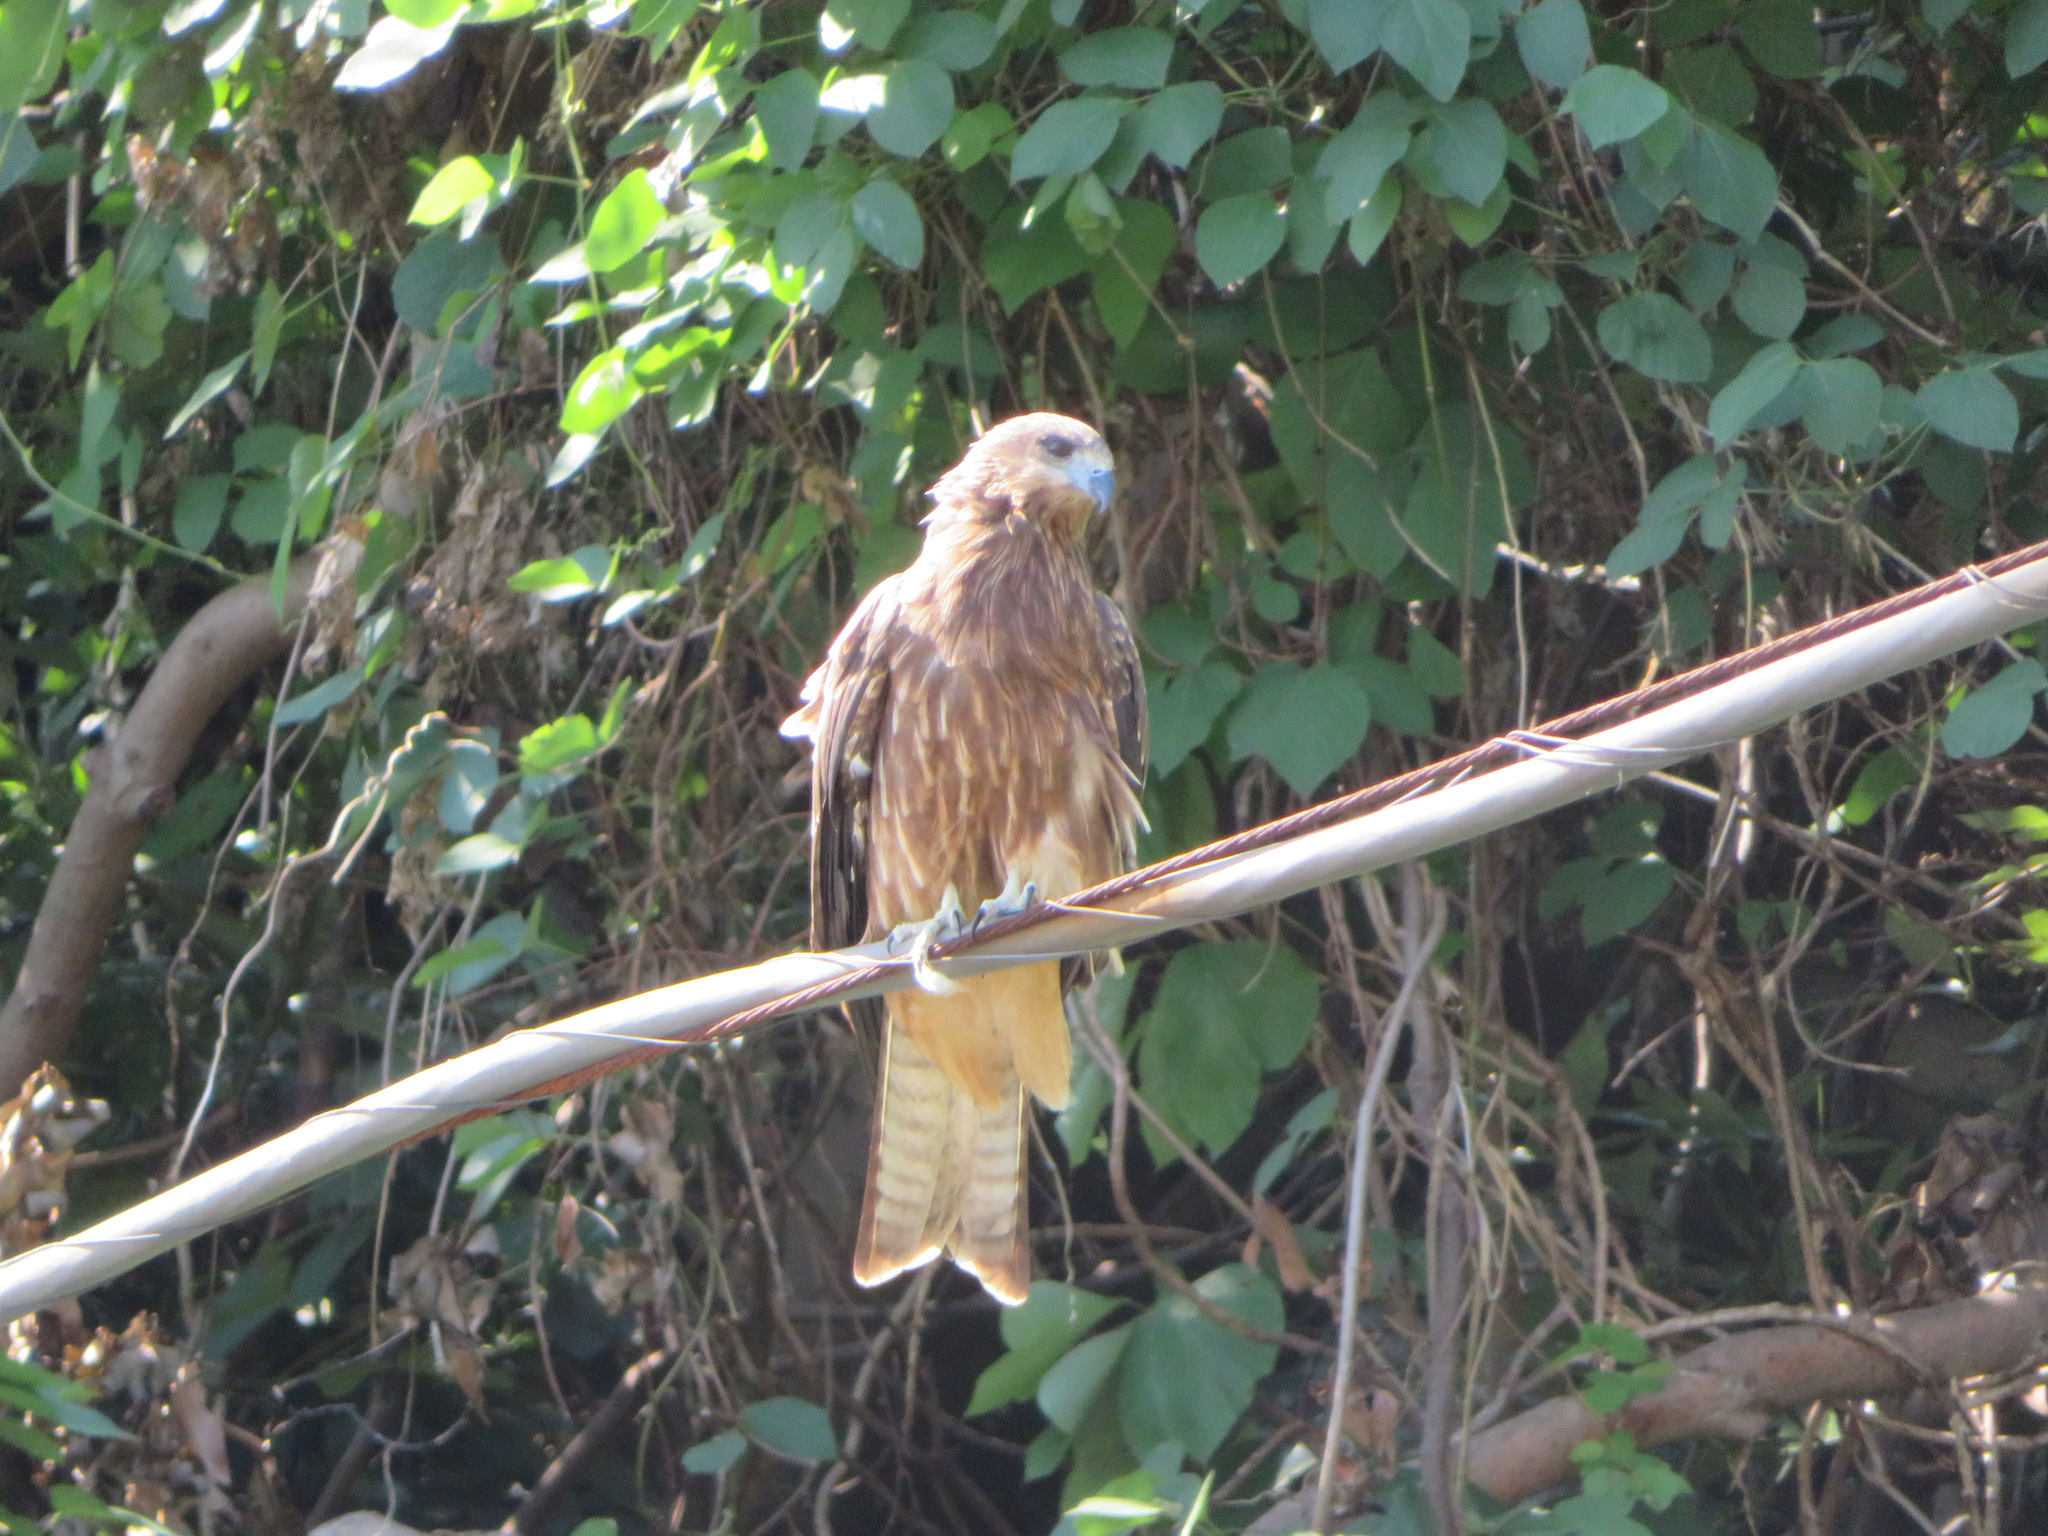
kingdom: Animalia
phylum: Chordata
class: Aves
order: Accipitriformes
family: Accipitridae
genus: Milvus
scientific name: Milvus migrans
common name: Black kite
